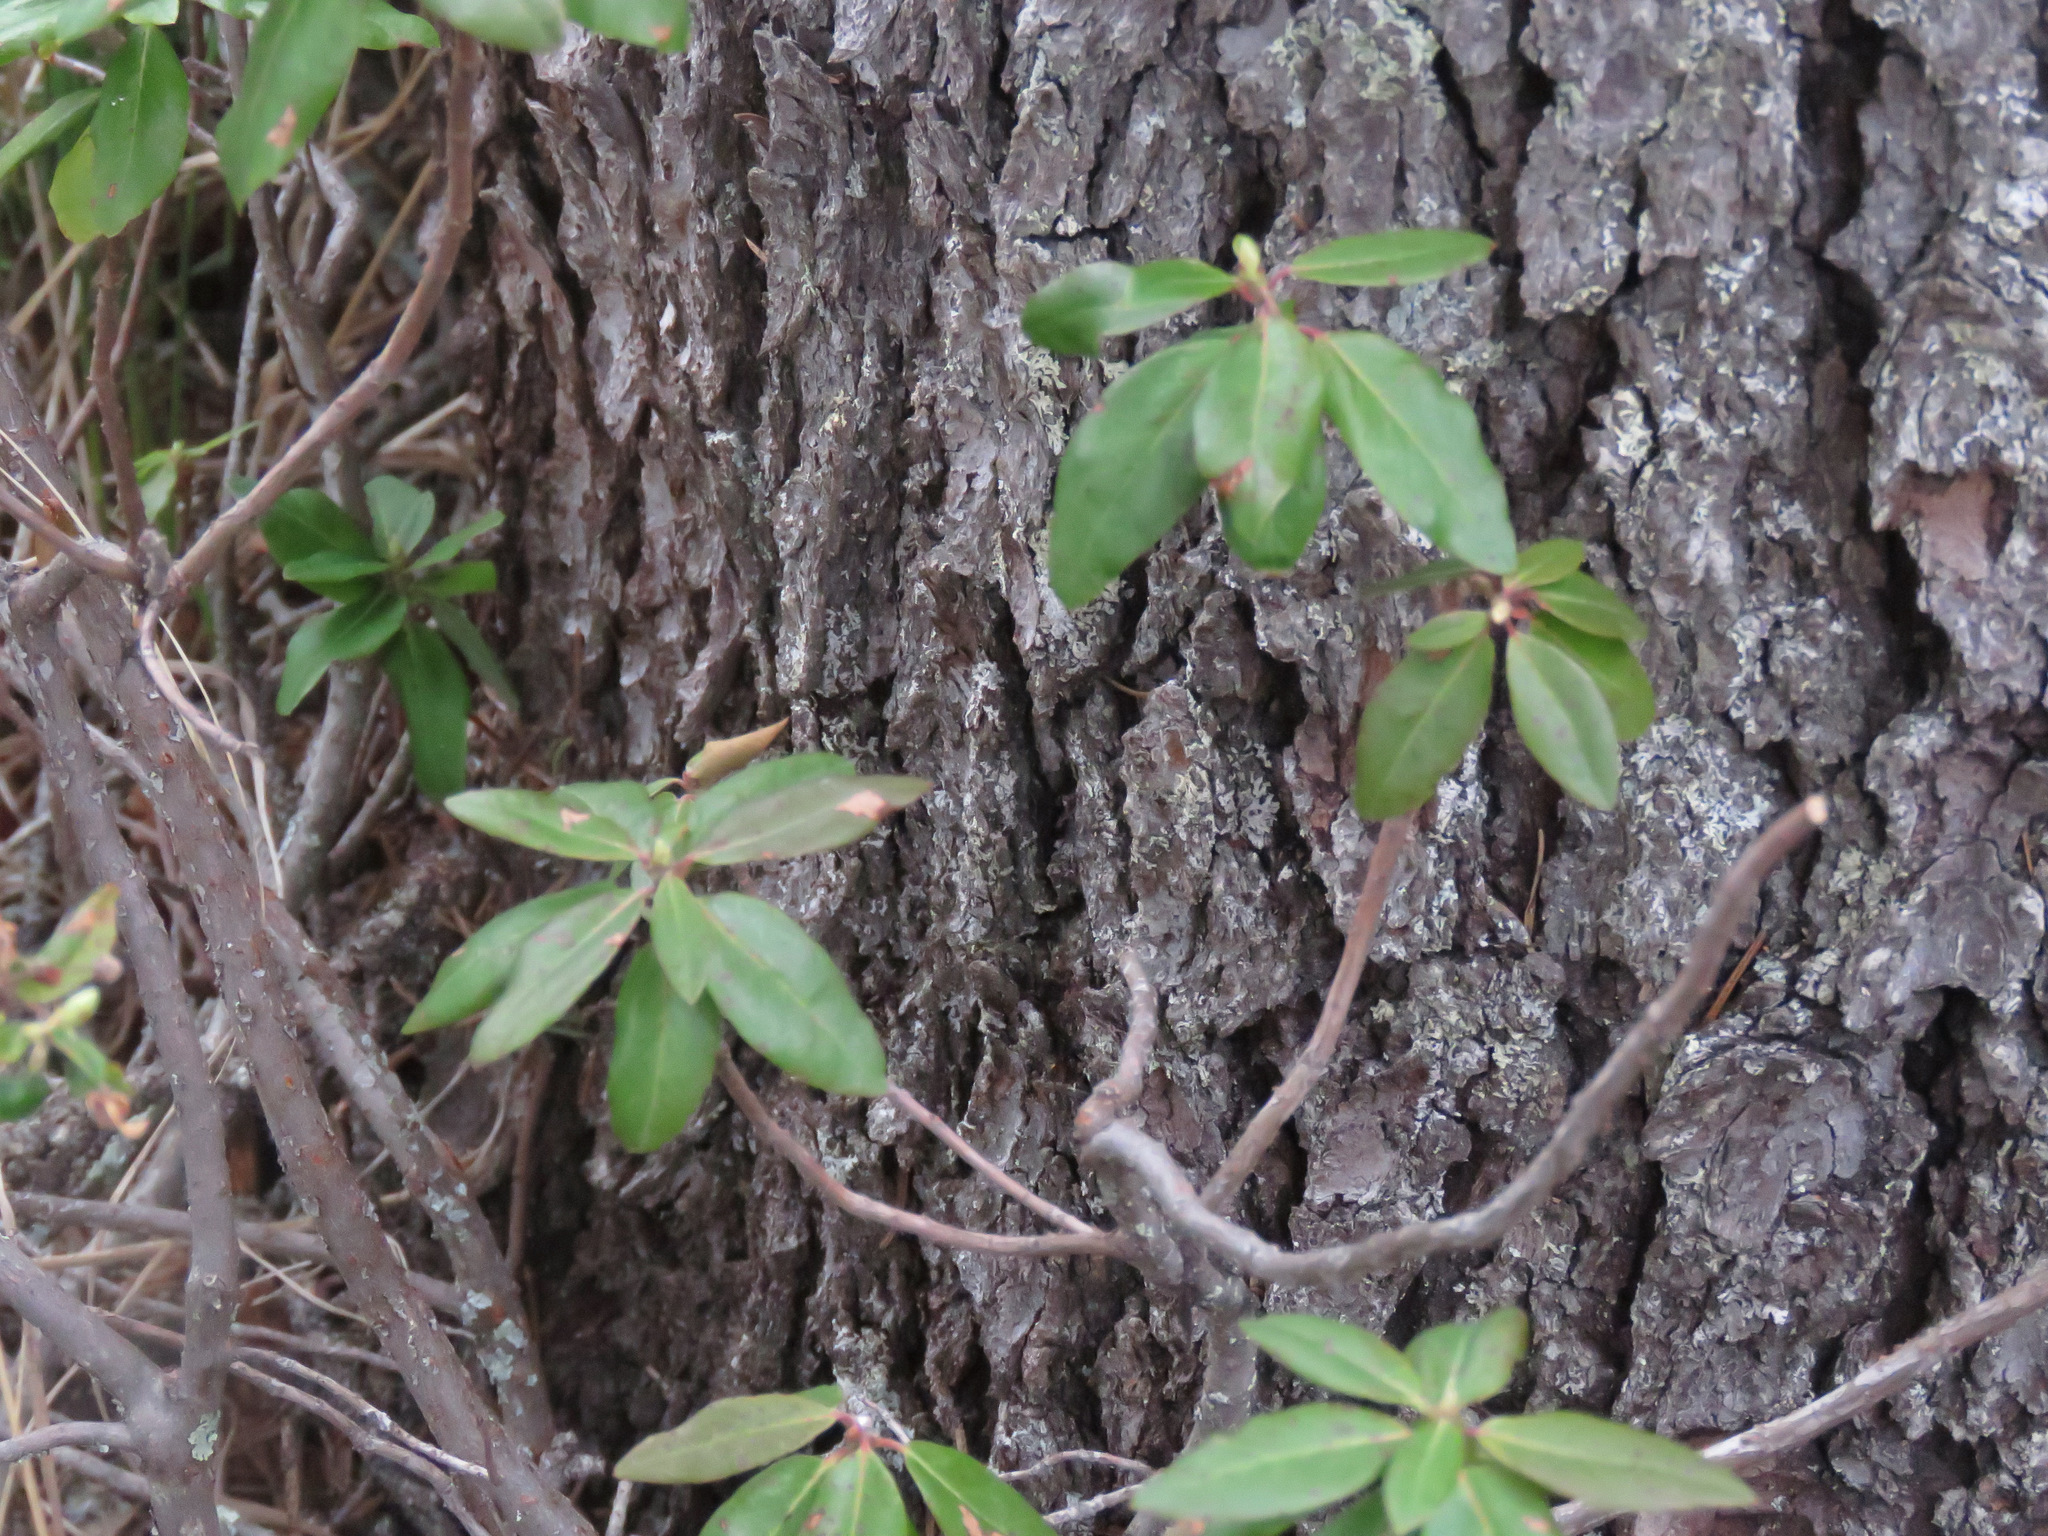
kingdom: Plantae
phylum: Tracheophyta
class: Magnoliopsida
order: Ericales
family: Ericaceae
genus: Rhododendron
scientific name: Rhododendron columbianum
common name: Western labrador tea
